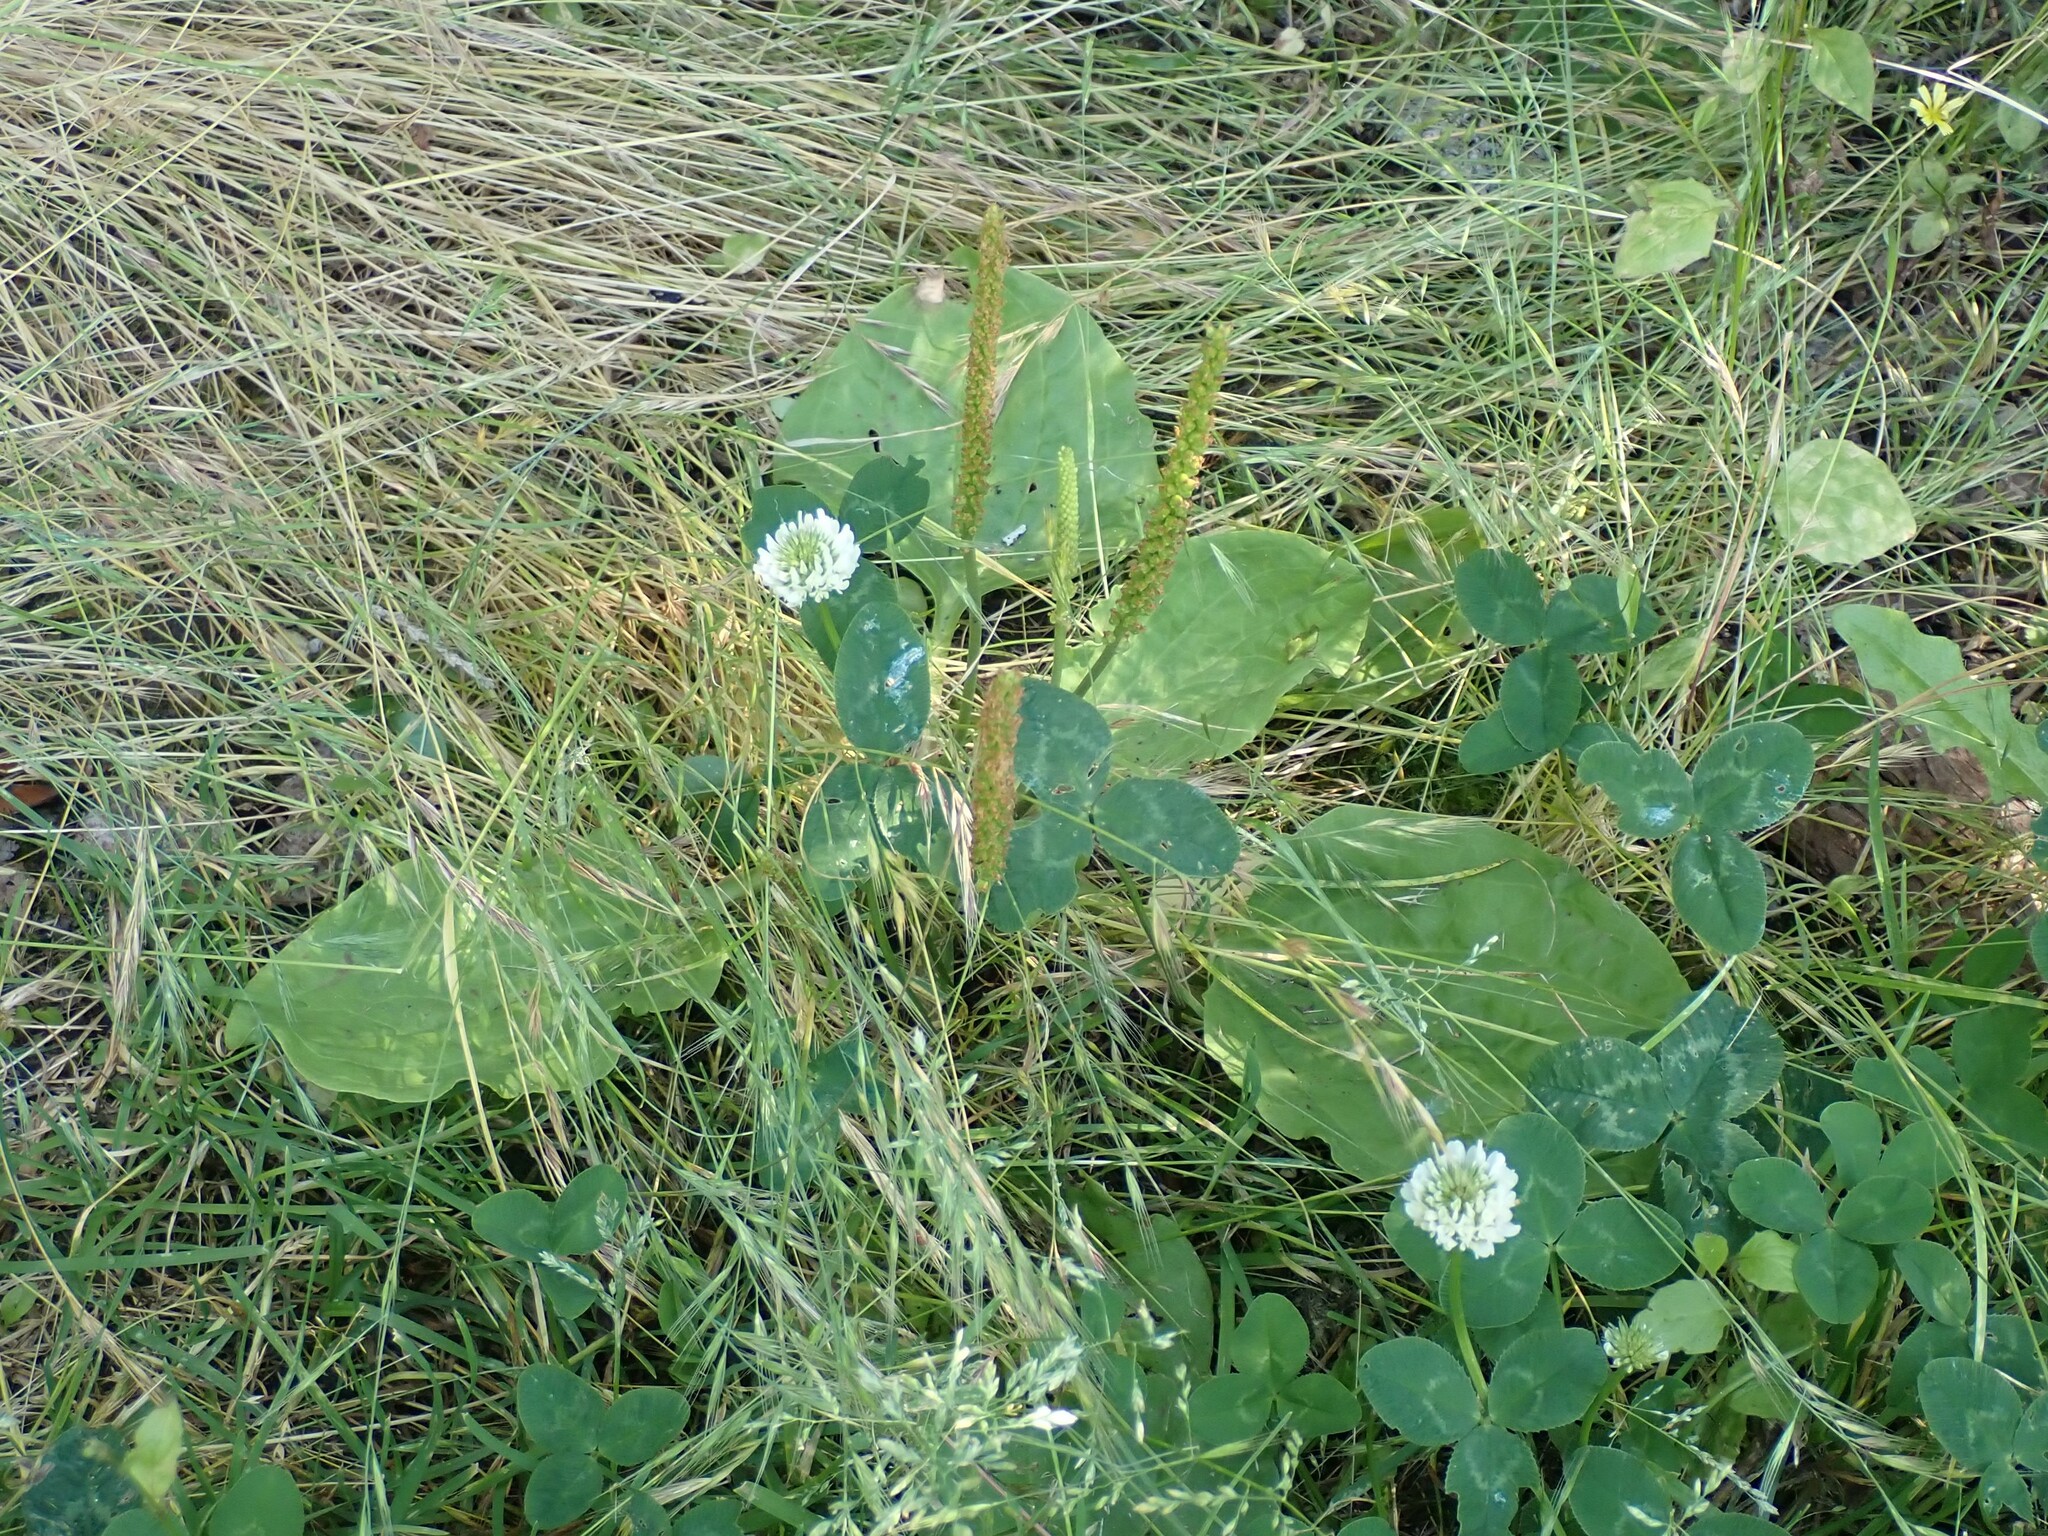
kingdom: Plantae
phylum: Tracheophyta
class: Magnoliopsida
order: Lamiales
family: Plantaginaceae
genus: Plantago
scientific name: Plantago major
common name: Common plantain
